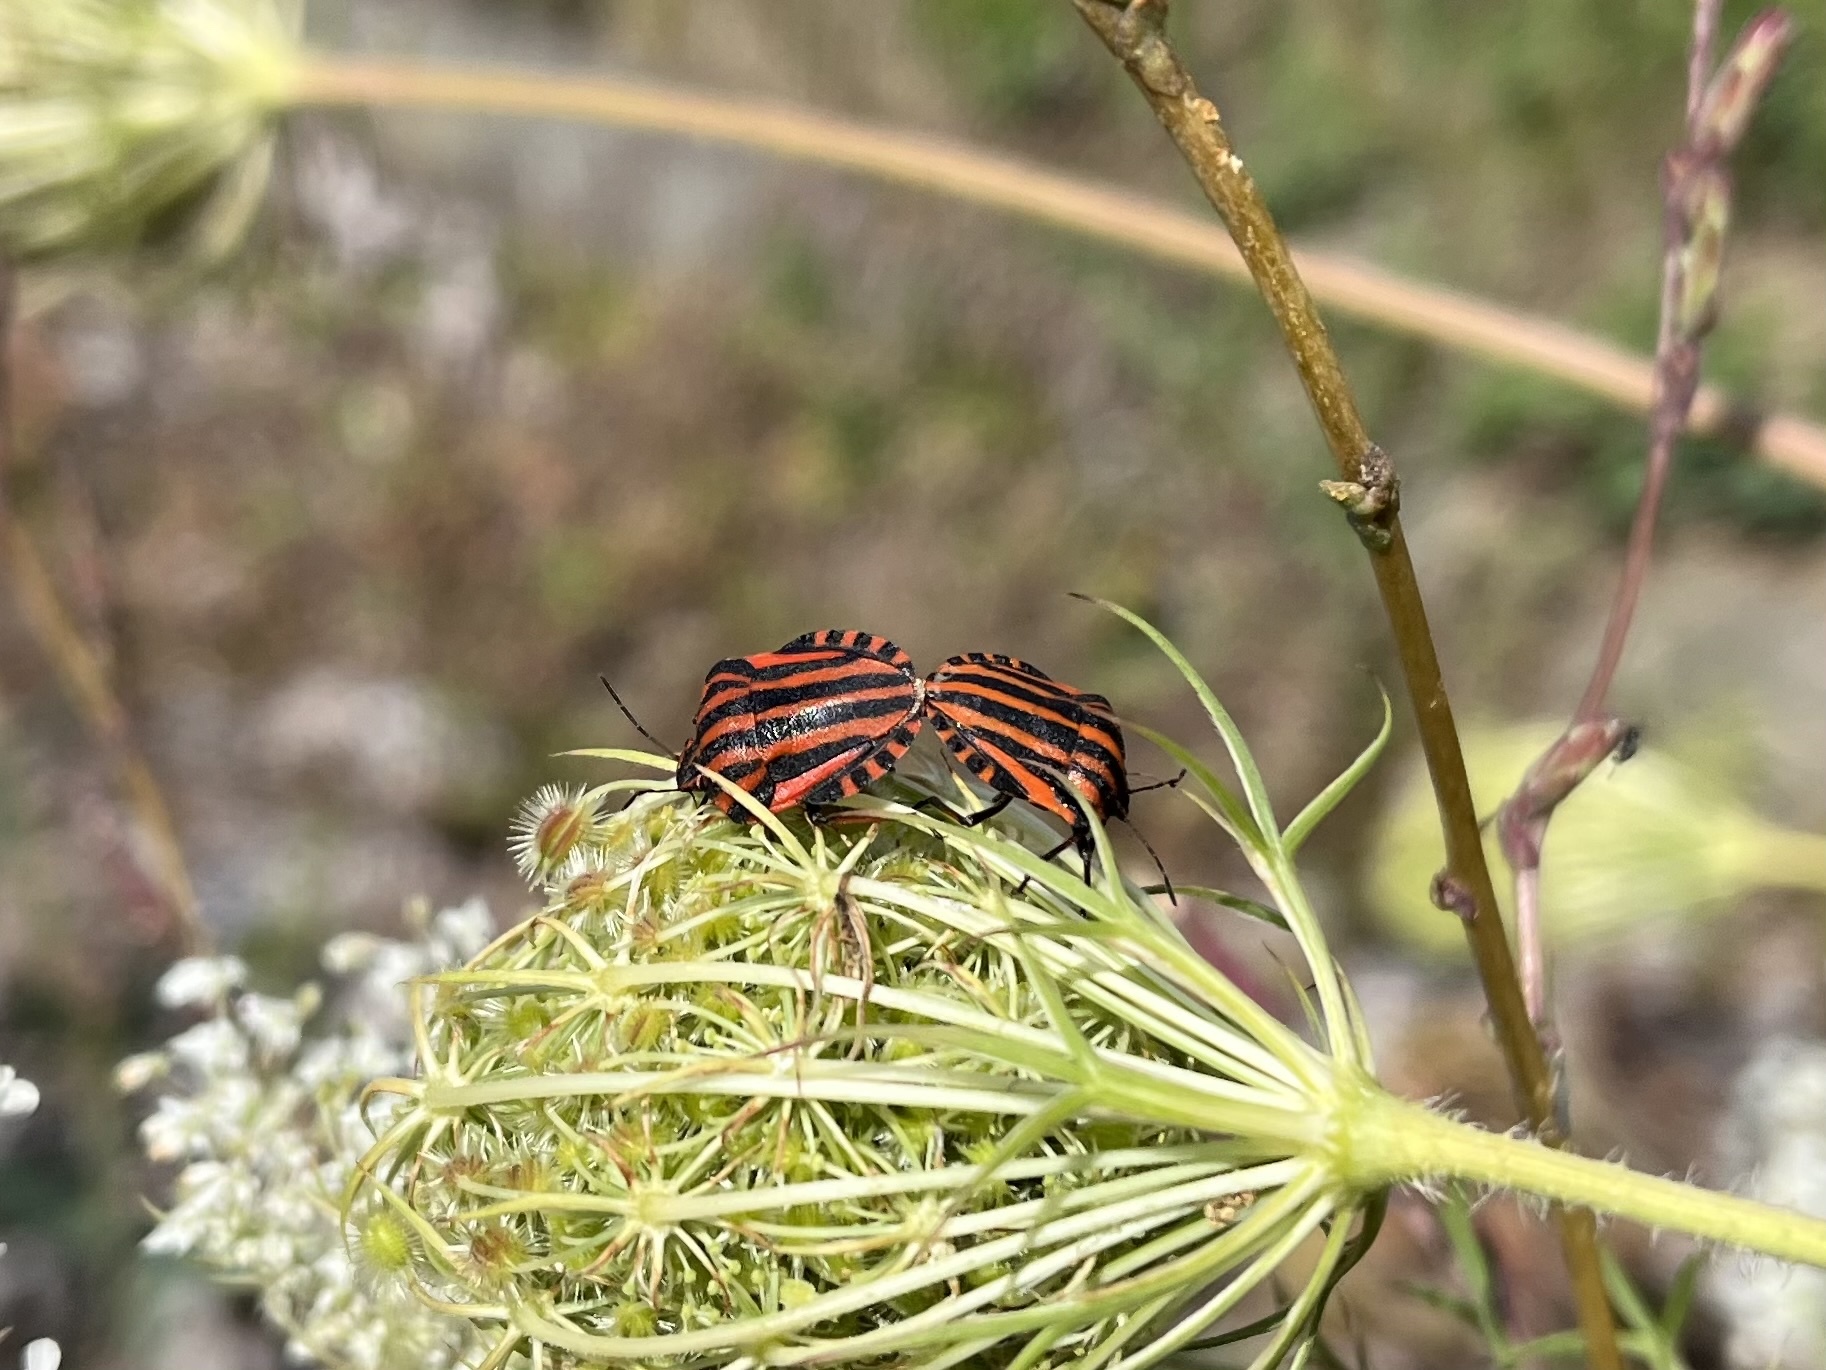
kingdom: Animalia
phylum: Arthropoda
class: Insecta
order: Hemiptera
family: Pentatomidae
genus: Graphosoma
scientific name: Graphosoma italicum
